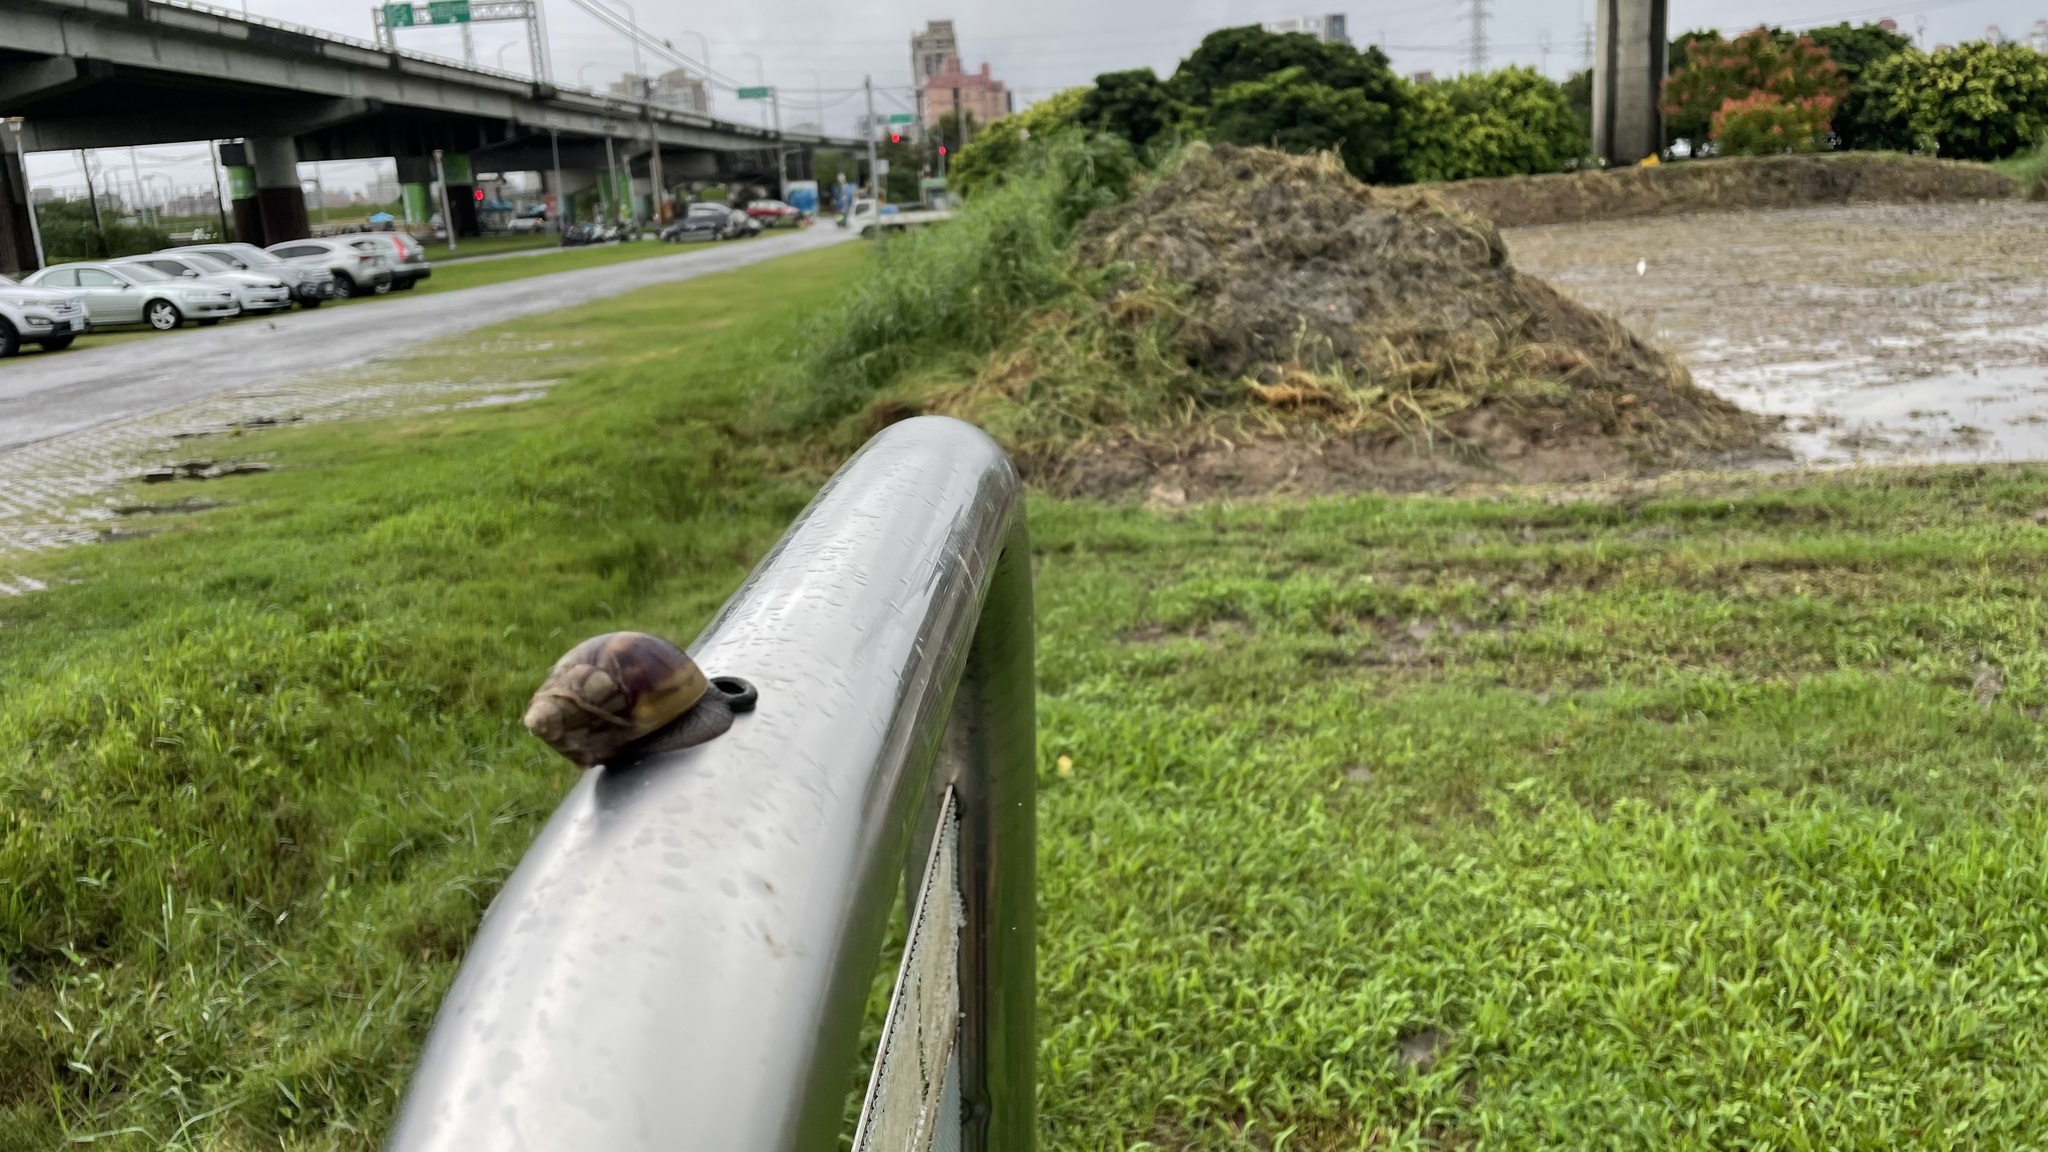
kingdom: Animalia
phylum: Mollusca
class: Gastropoda
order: Stylommatophora
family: Achatinidae
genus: Lissachatina
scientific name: Lissachatina fulica
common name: Giant african snail
